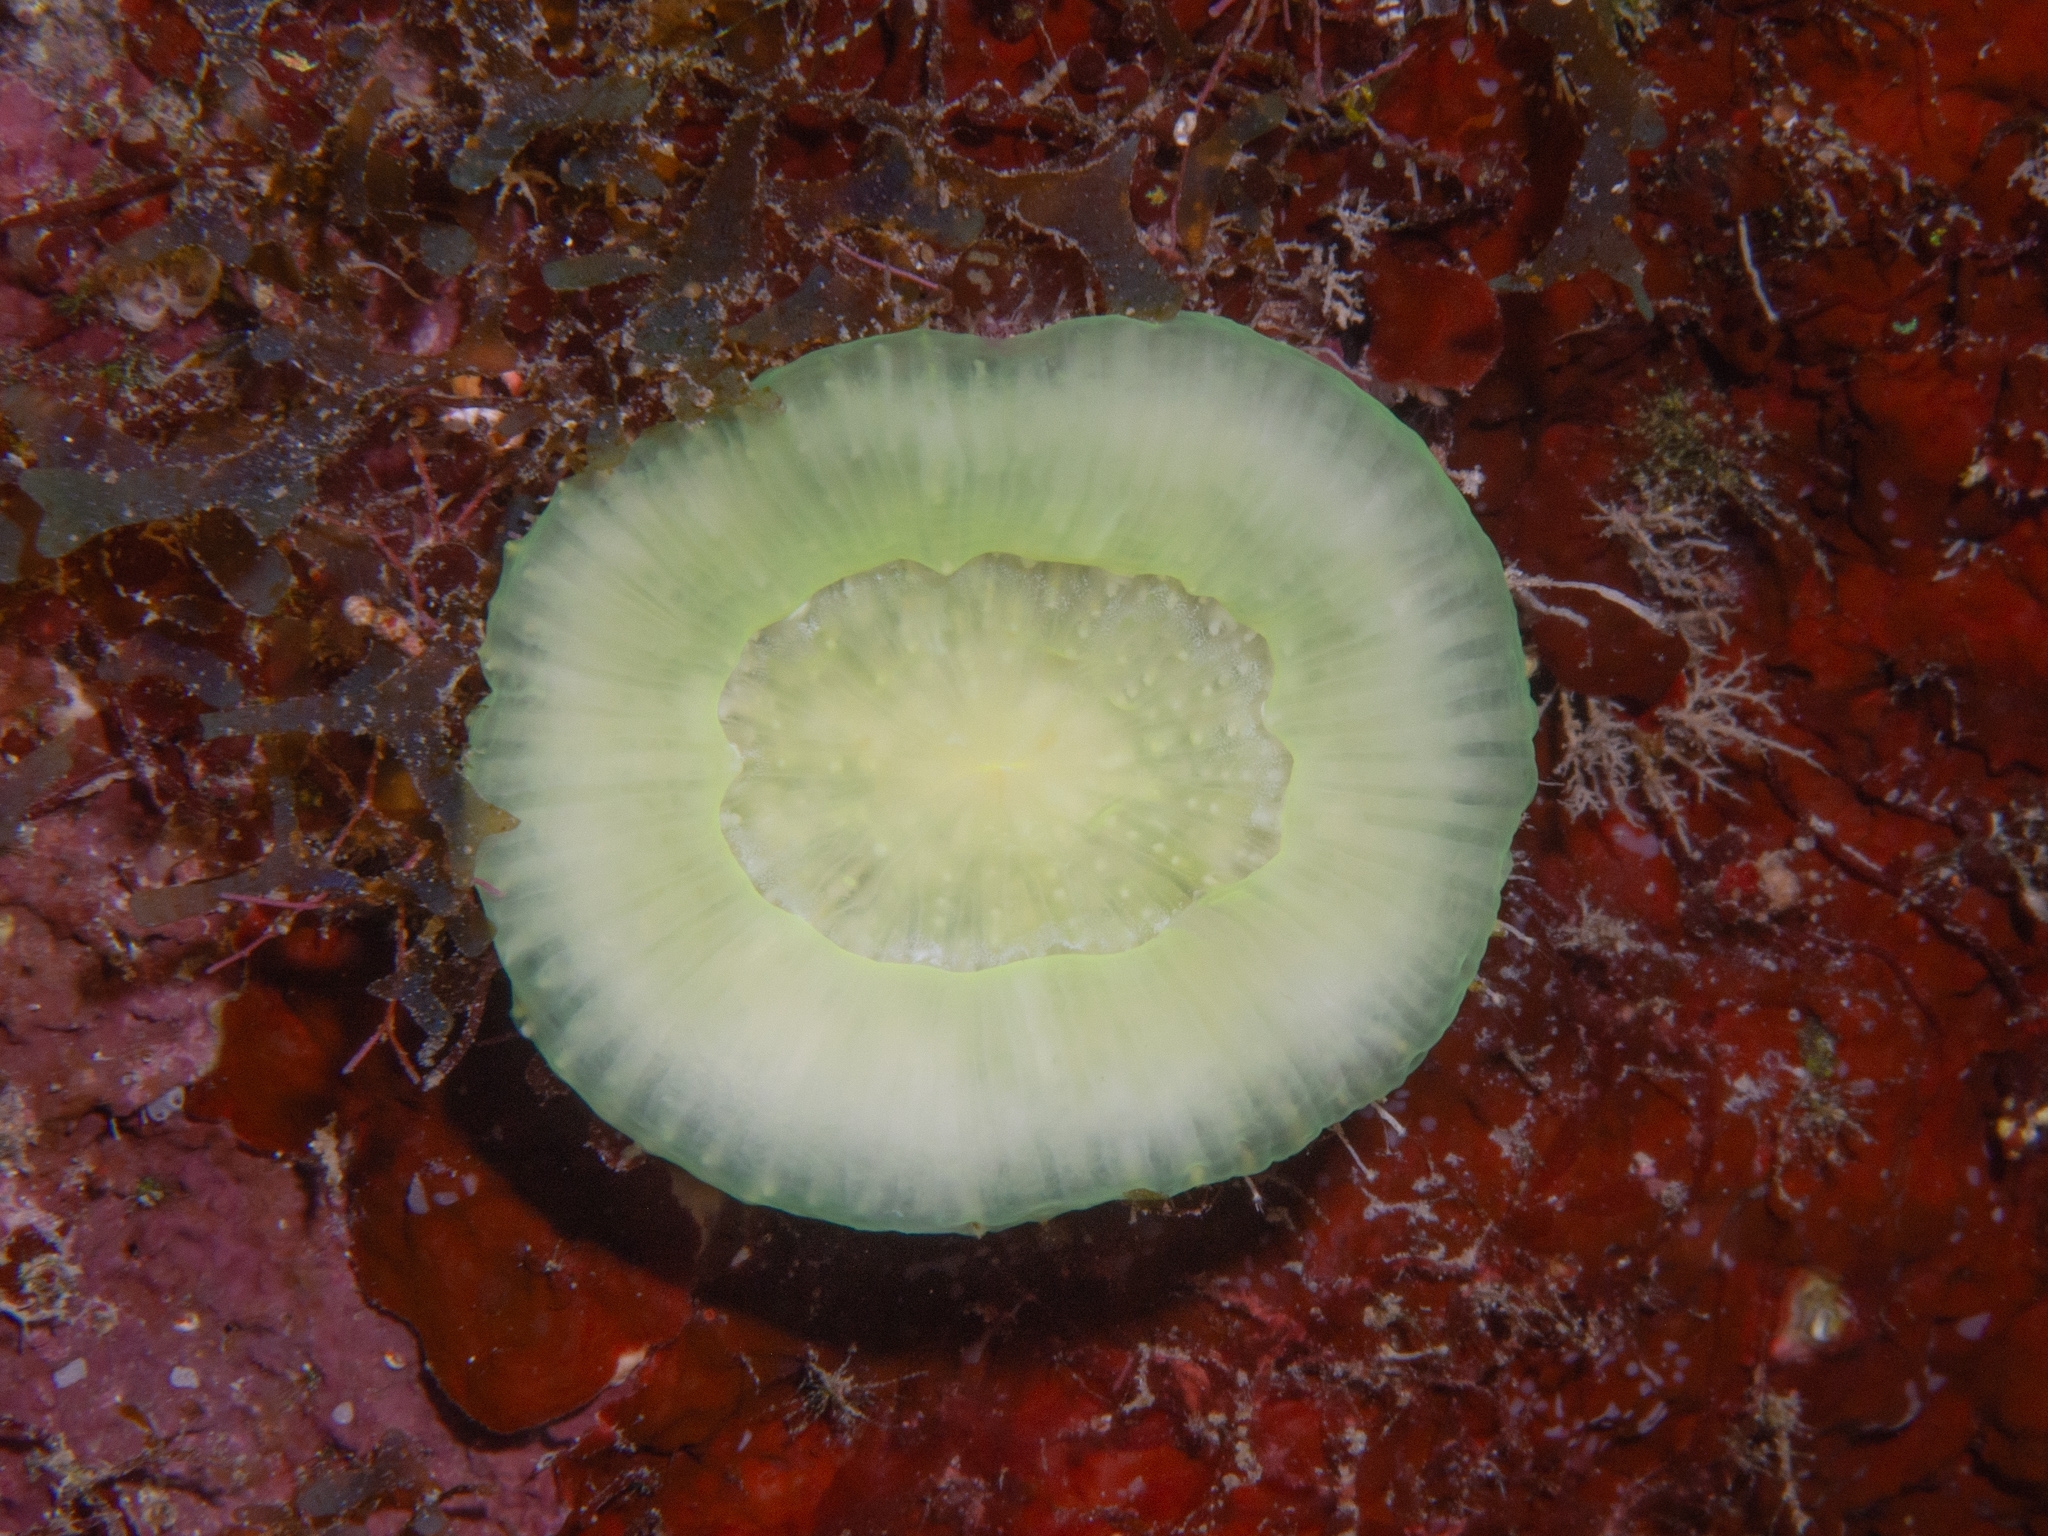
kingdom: Animalia
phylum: Cnidaria
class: Anthozoa
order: Scleractinia
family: Faviidae
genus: Scolymia
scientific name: Scolymia cubensis
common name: Artichoke coral
